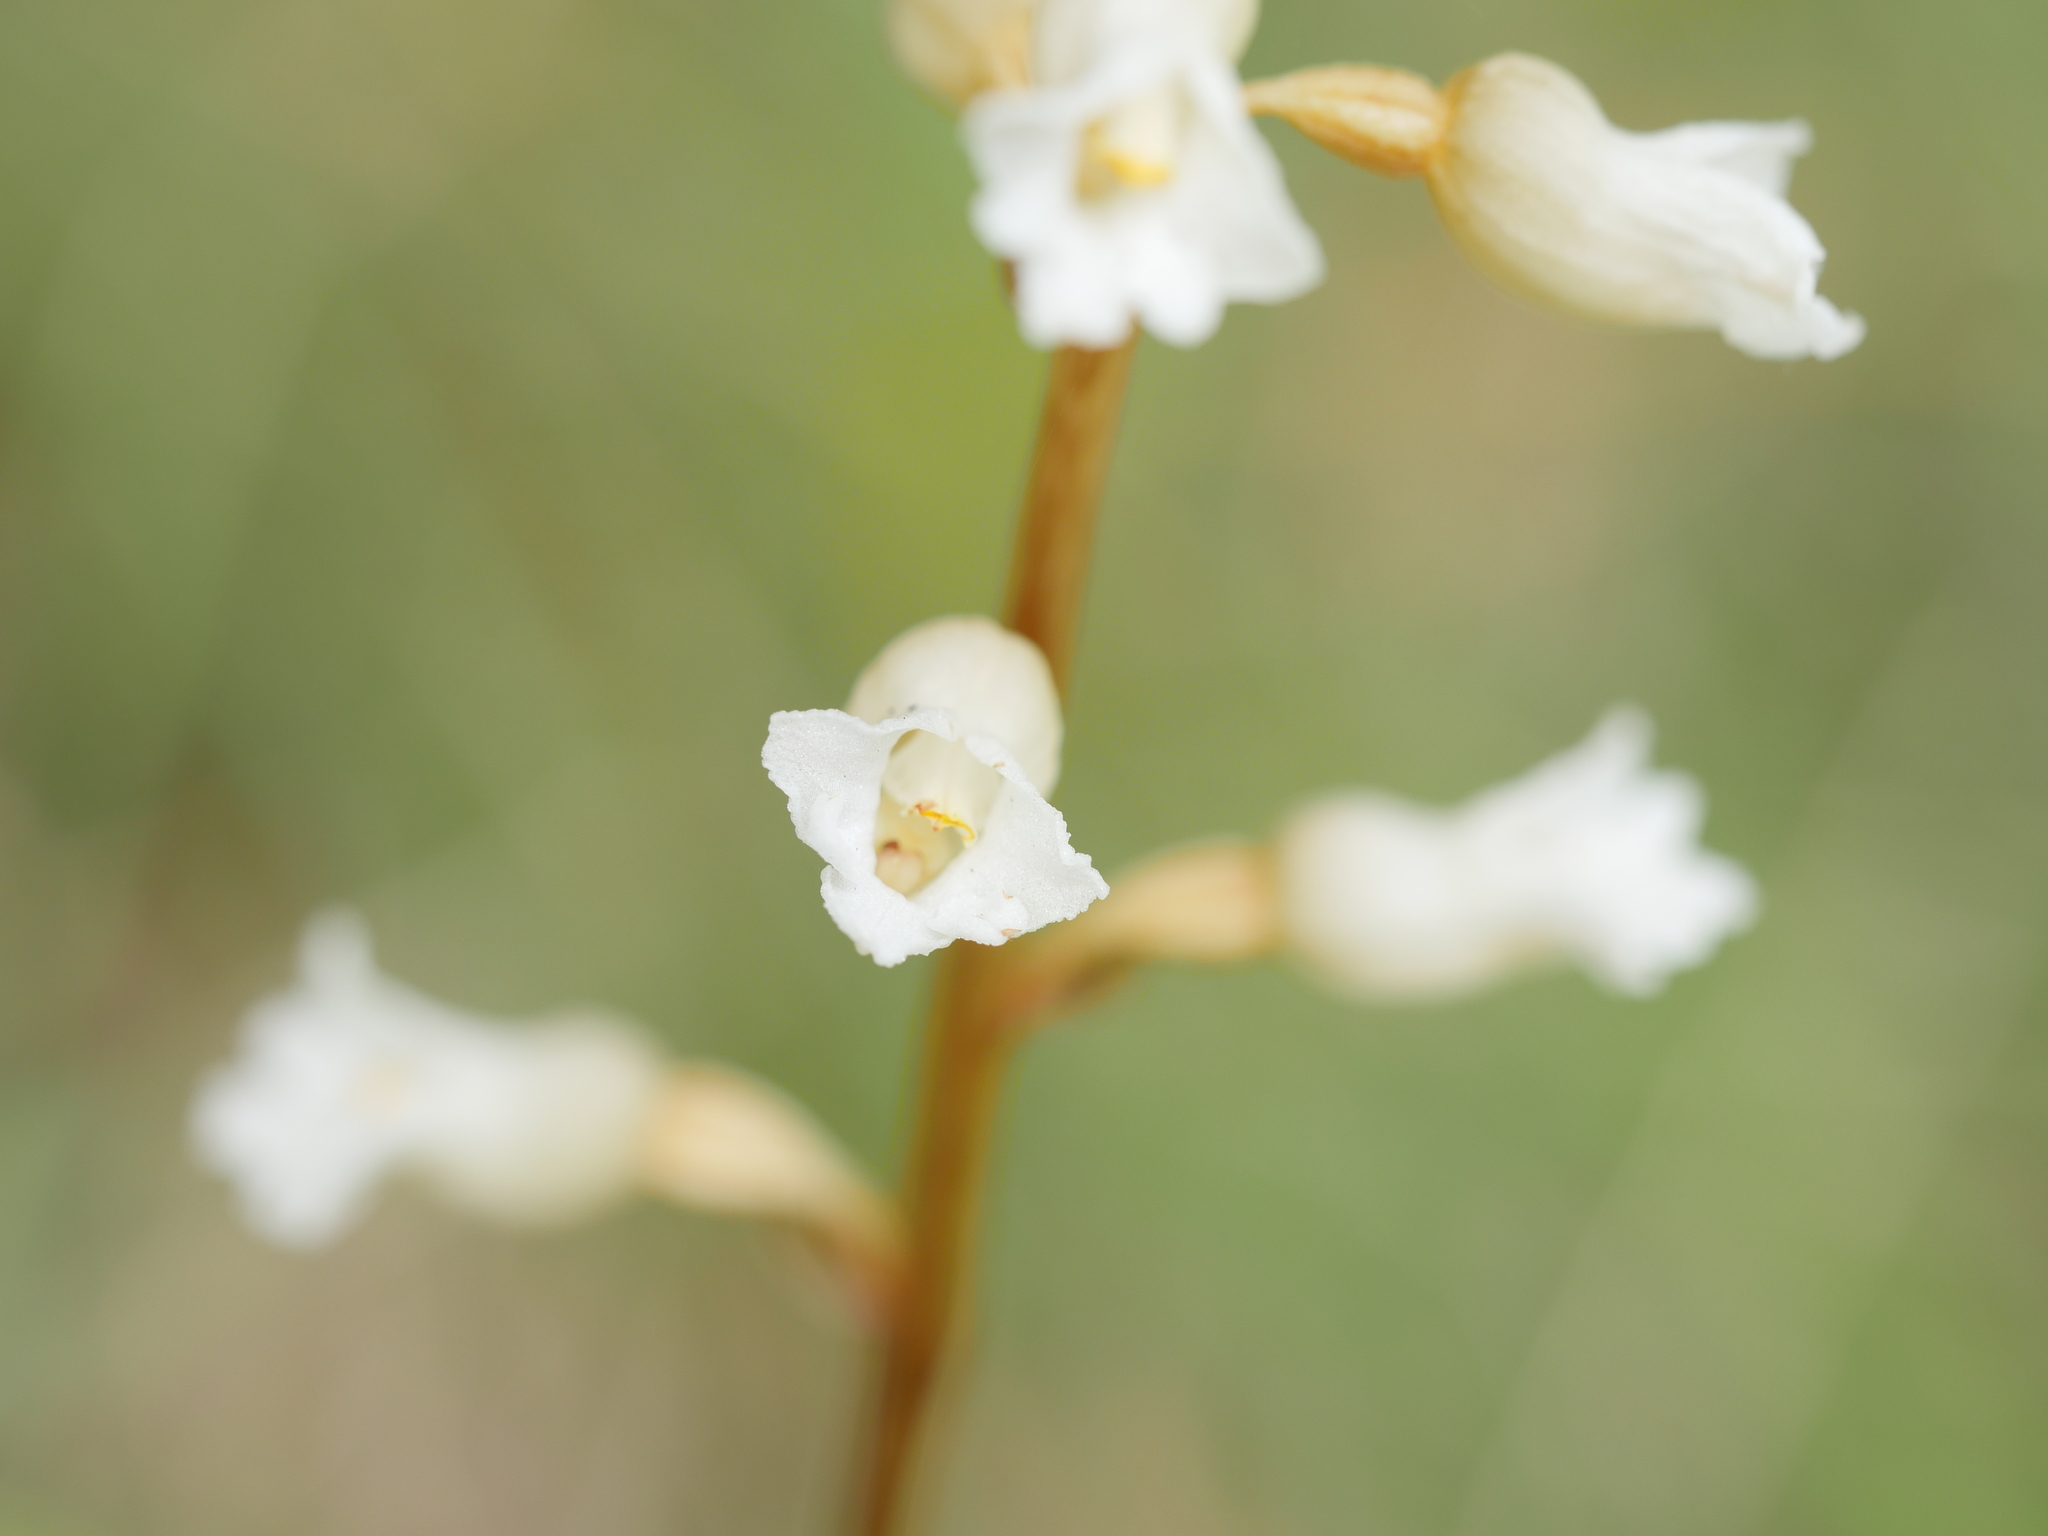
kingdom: Plantae
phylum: Tracheophyta
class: Liliopsida
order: Asparagales
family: Orchidaceae
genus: Gastrodia
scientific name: Gastrodia sesamoides
